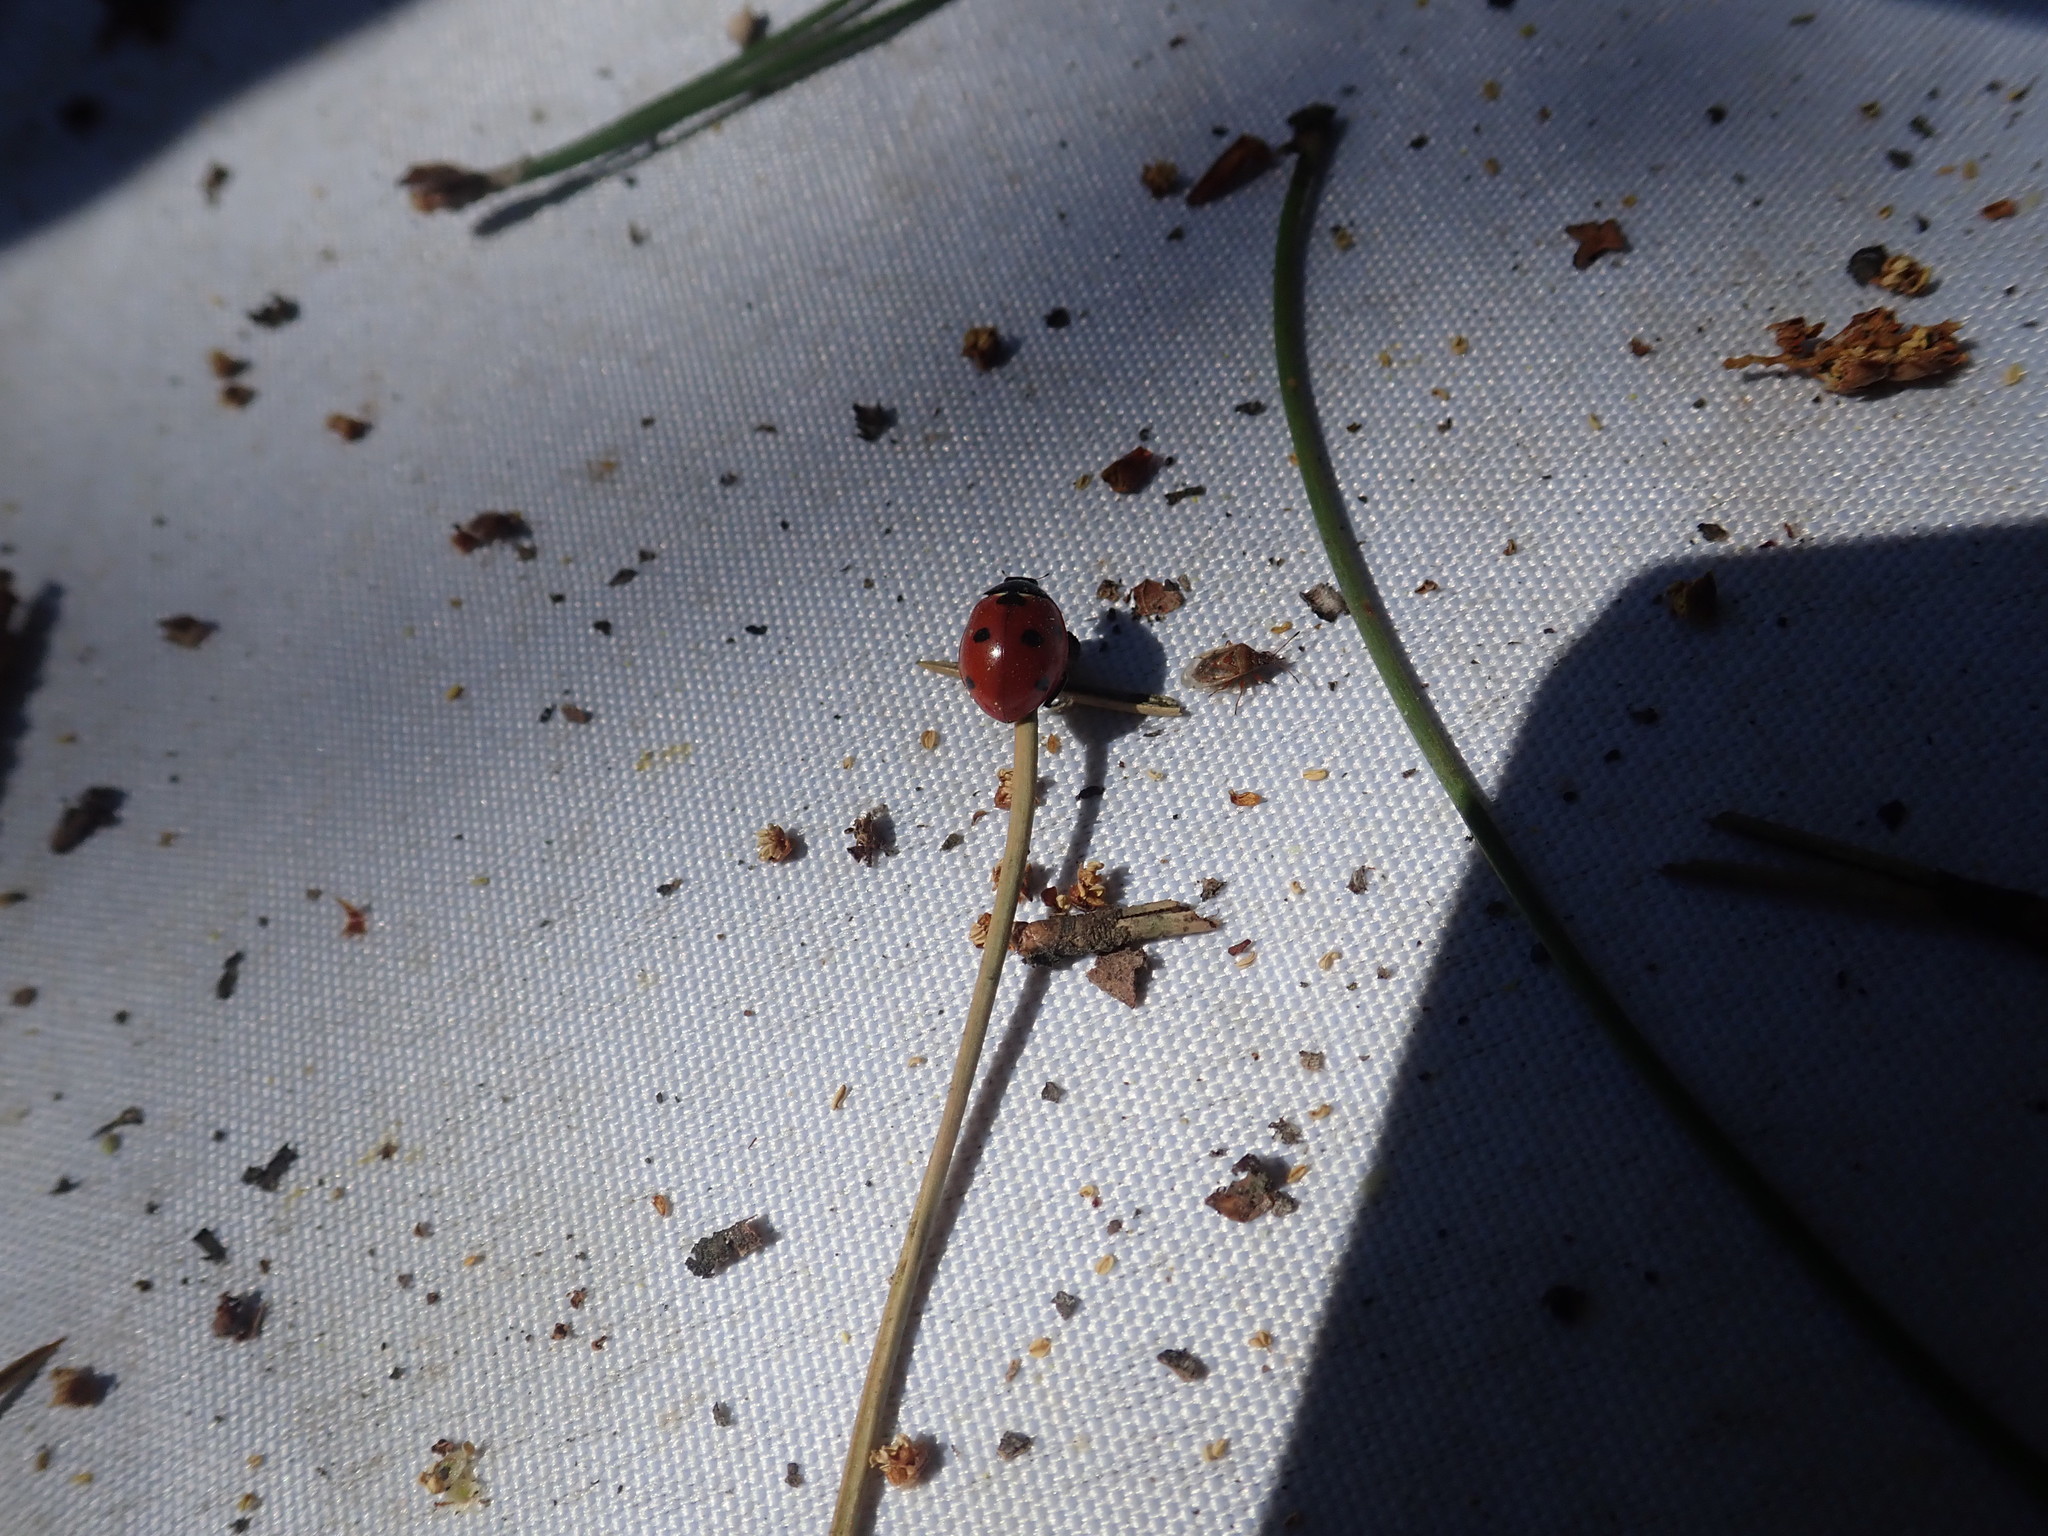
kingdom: Animalia
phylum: Arthropoda
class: Insecta
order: Coleoptera
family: Coccinellidae
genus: Coccinella
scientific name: Coccinella septempunctata
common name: Sevenspotted lady beetle
